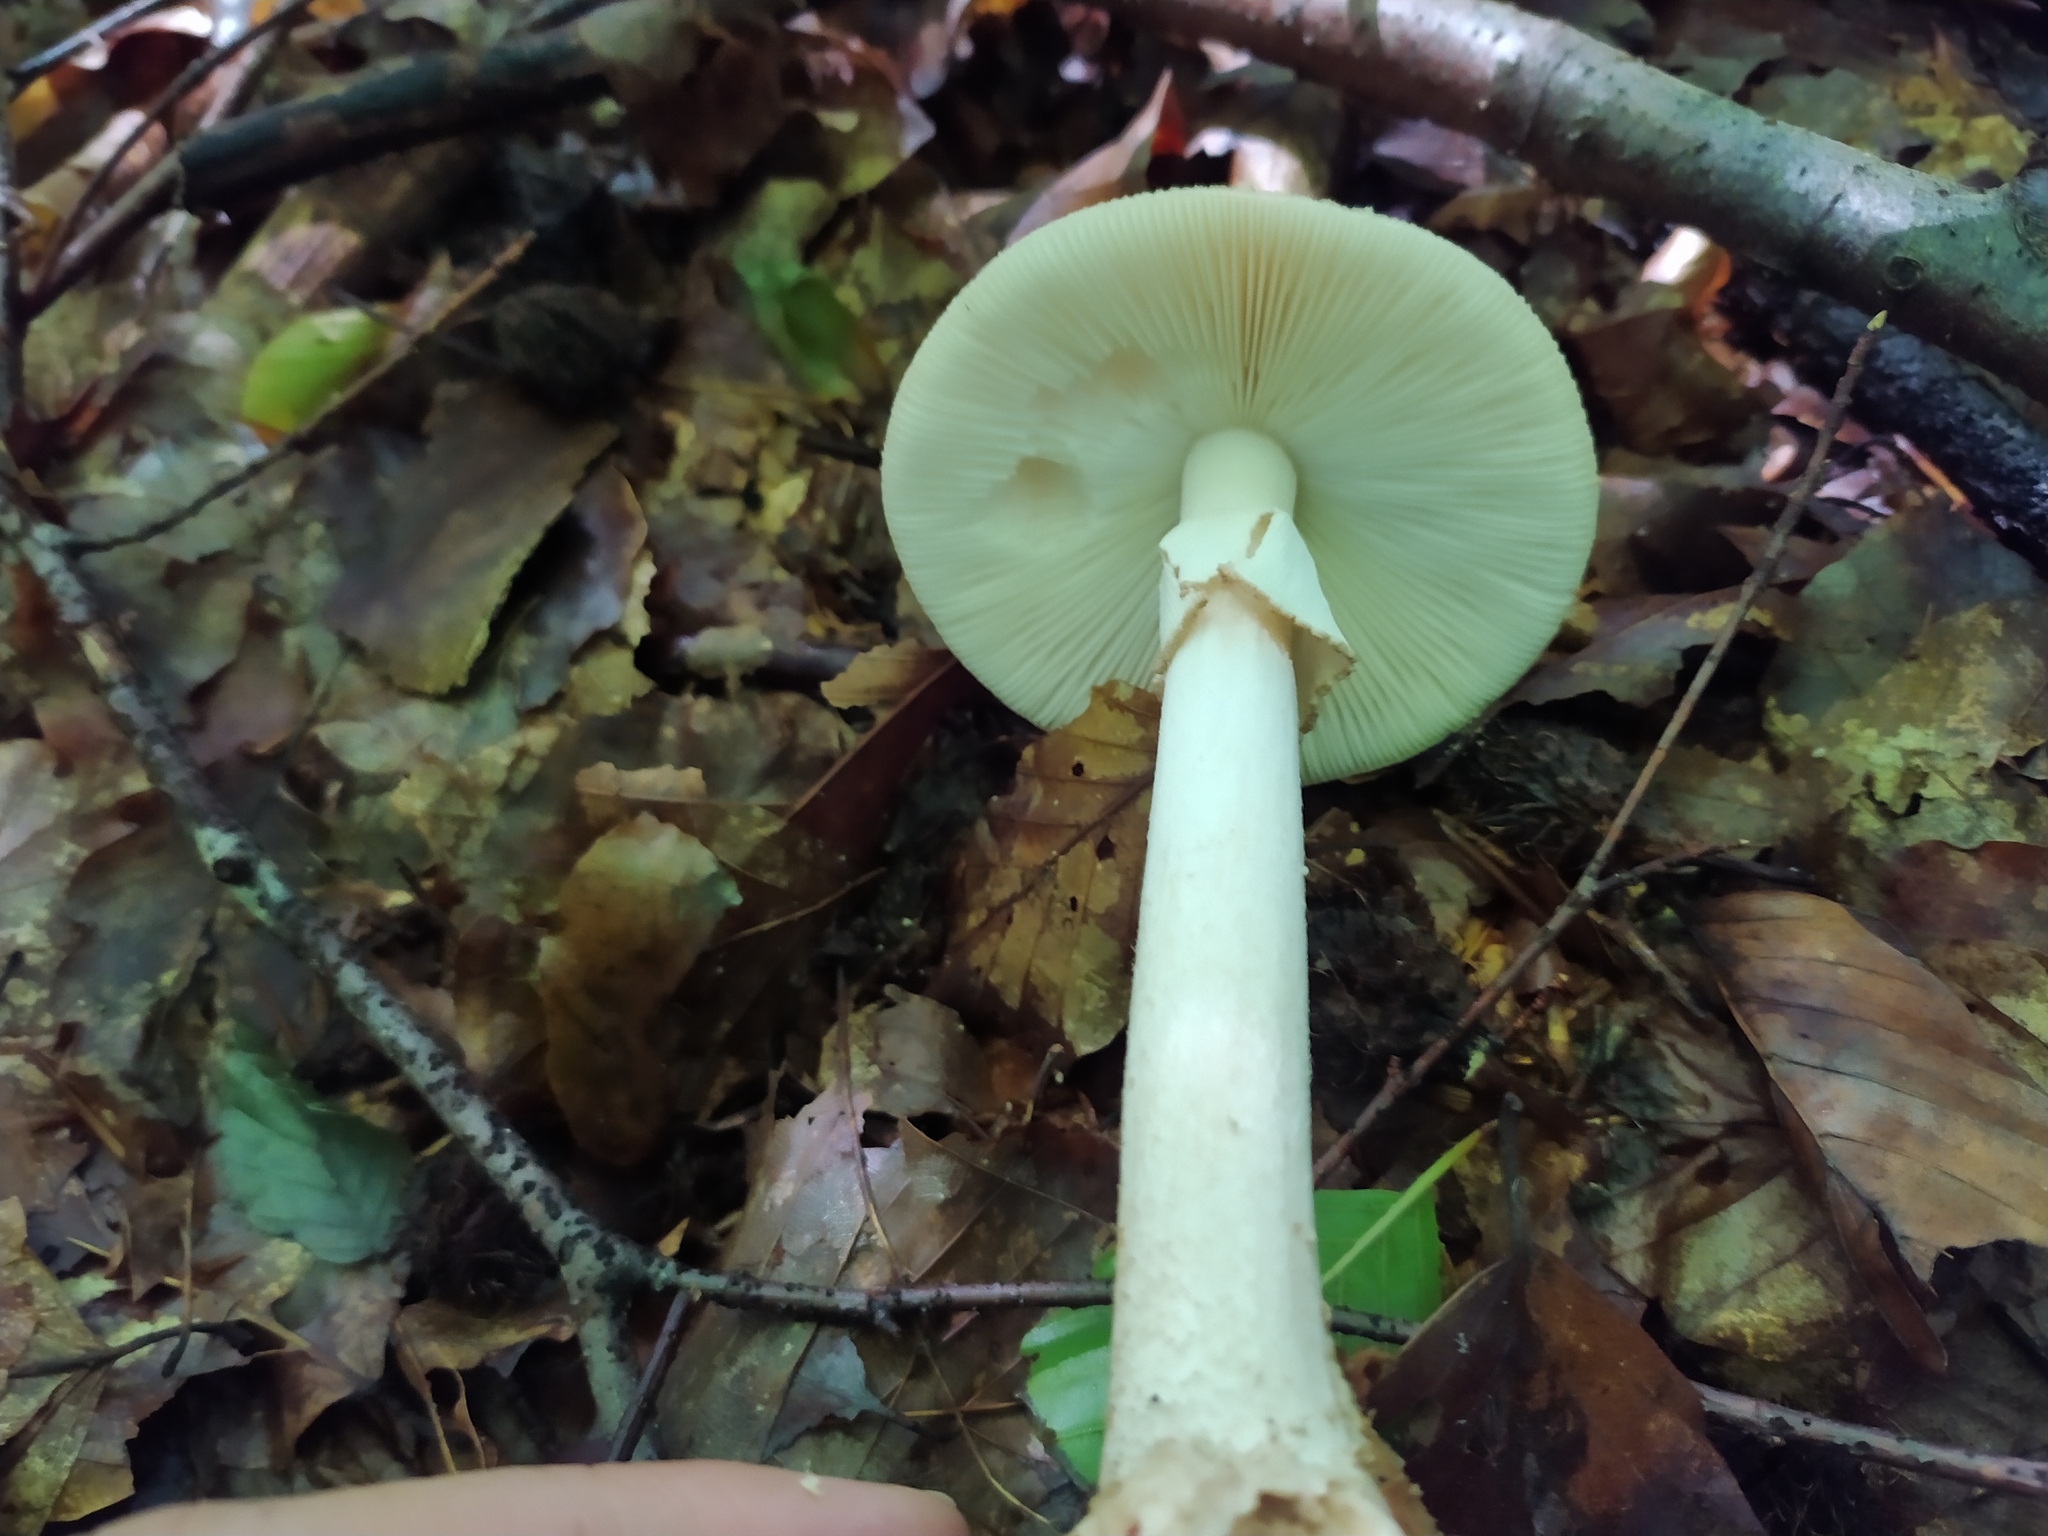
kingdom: Fungi
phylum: Basidiomycota
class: Agaricomycetes
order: Agaricales
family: Amanitaceae
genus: Amanita
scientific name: Amanita rubescens
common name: Blusher
